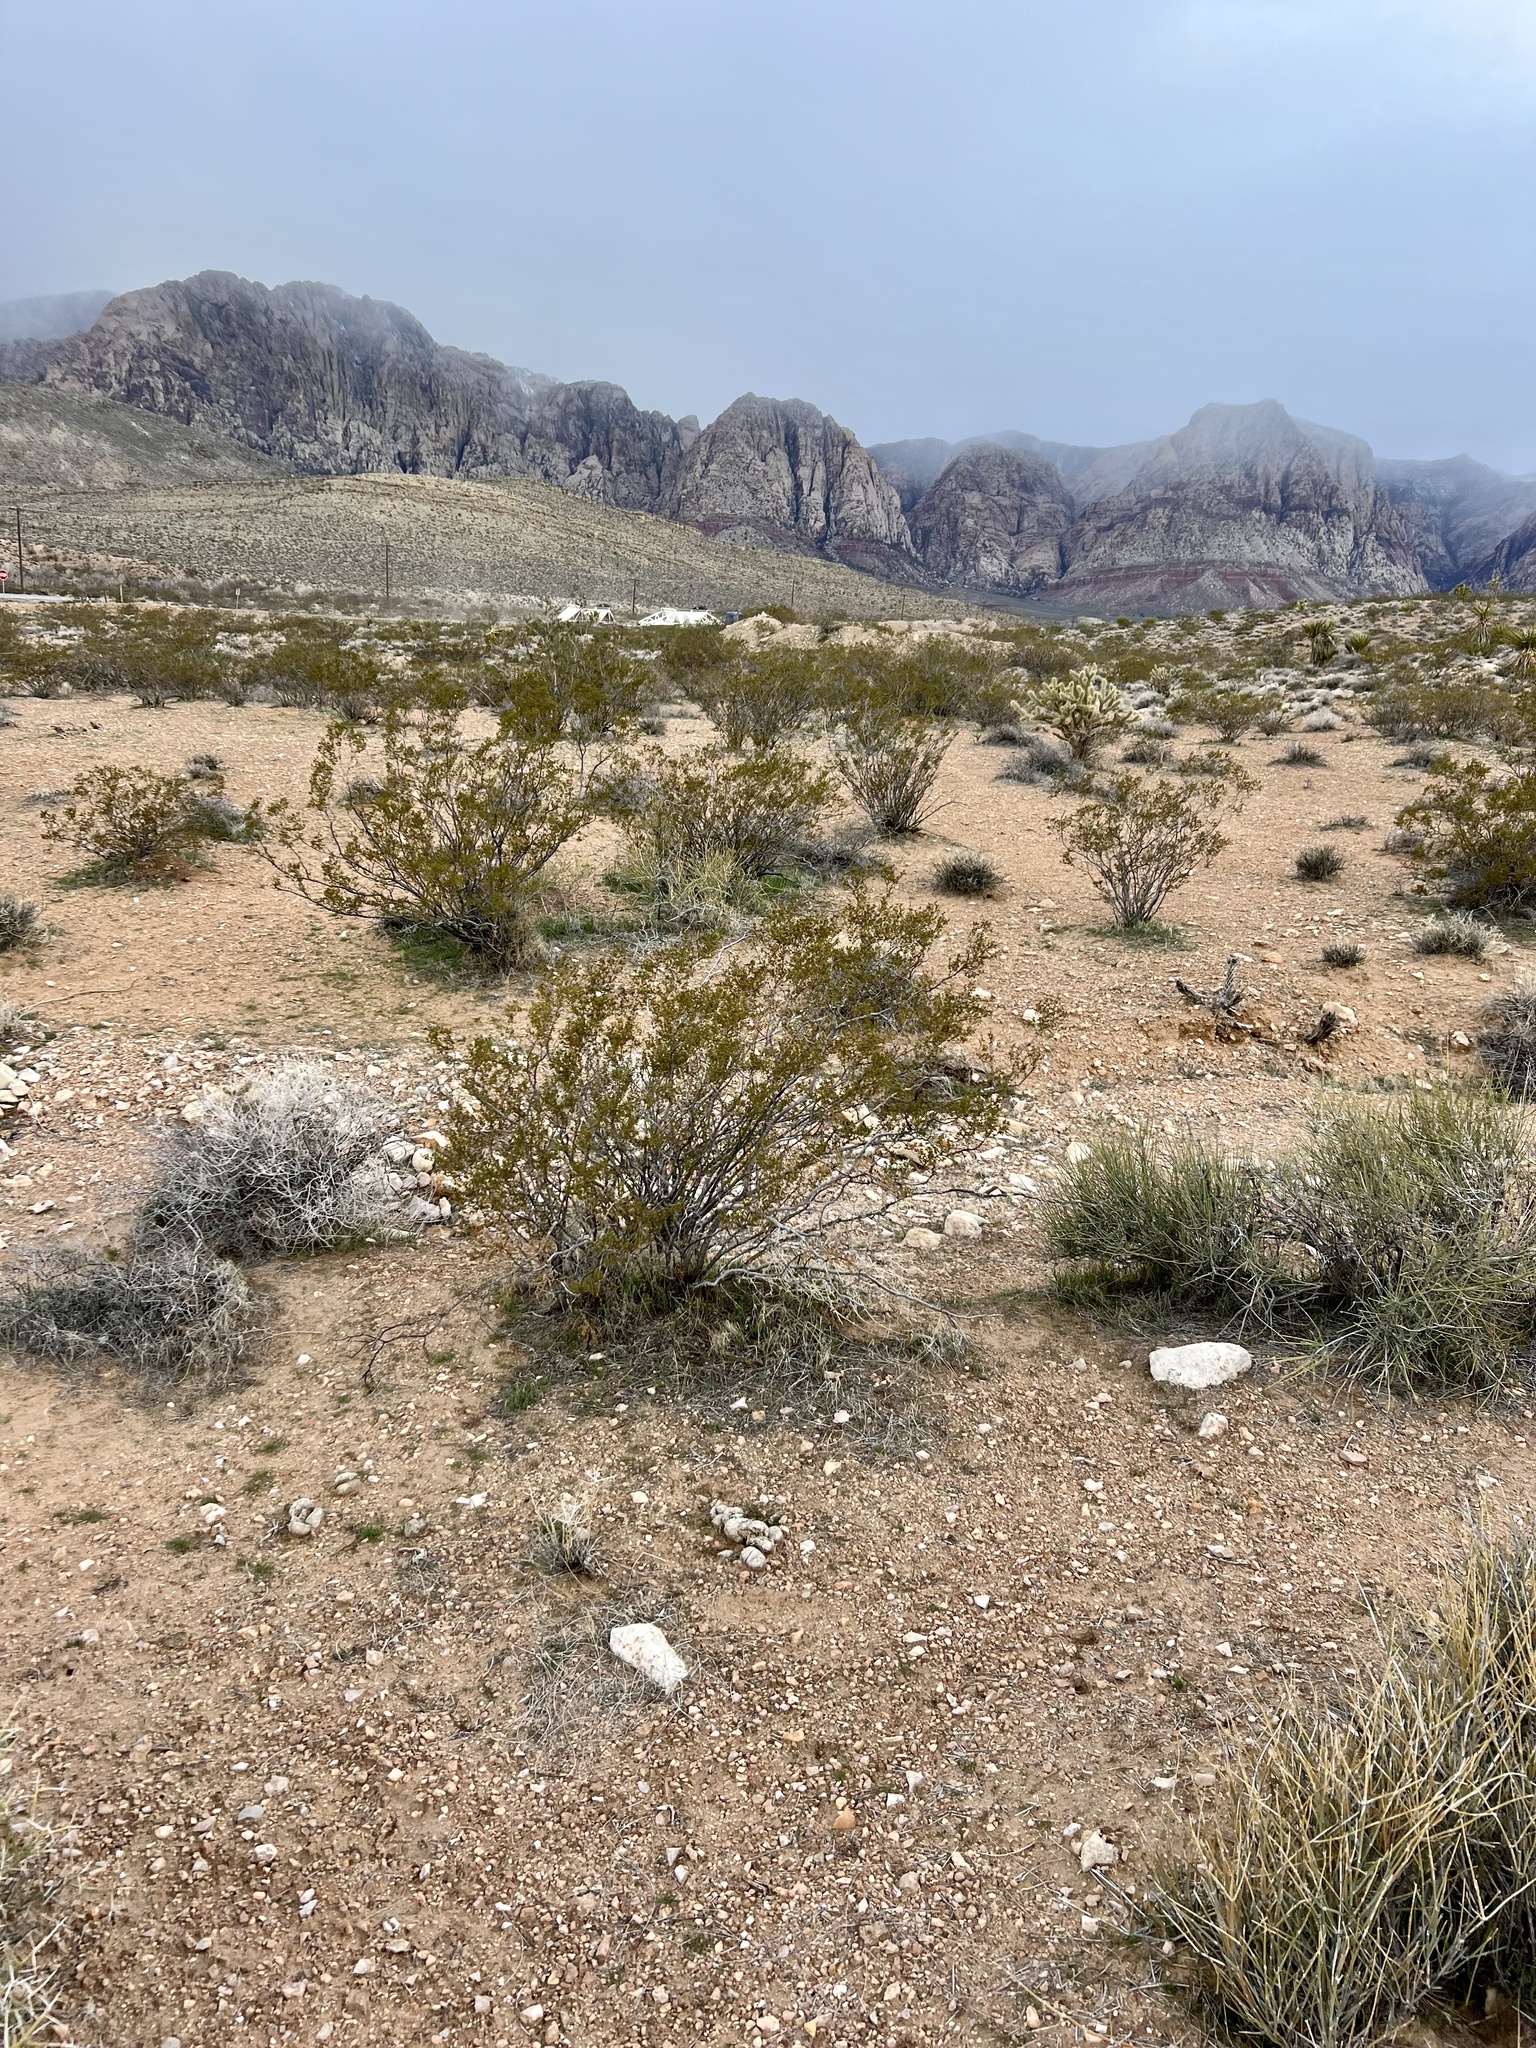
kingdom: Plantae
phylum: Tracheophyta
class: Magnoliopsida
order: Zygophyllales
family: Zygophyllaceae
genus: Larrea
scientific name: Larrea tridentata
